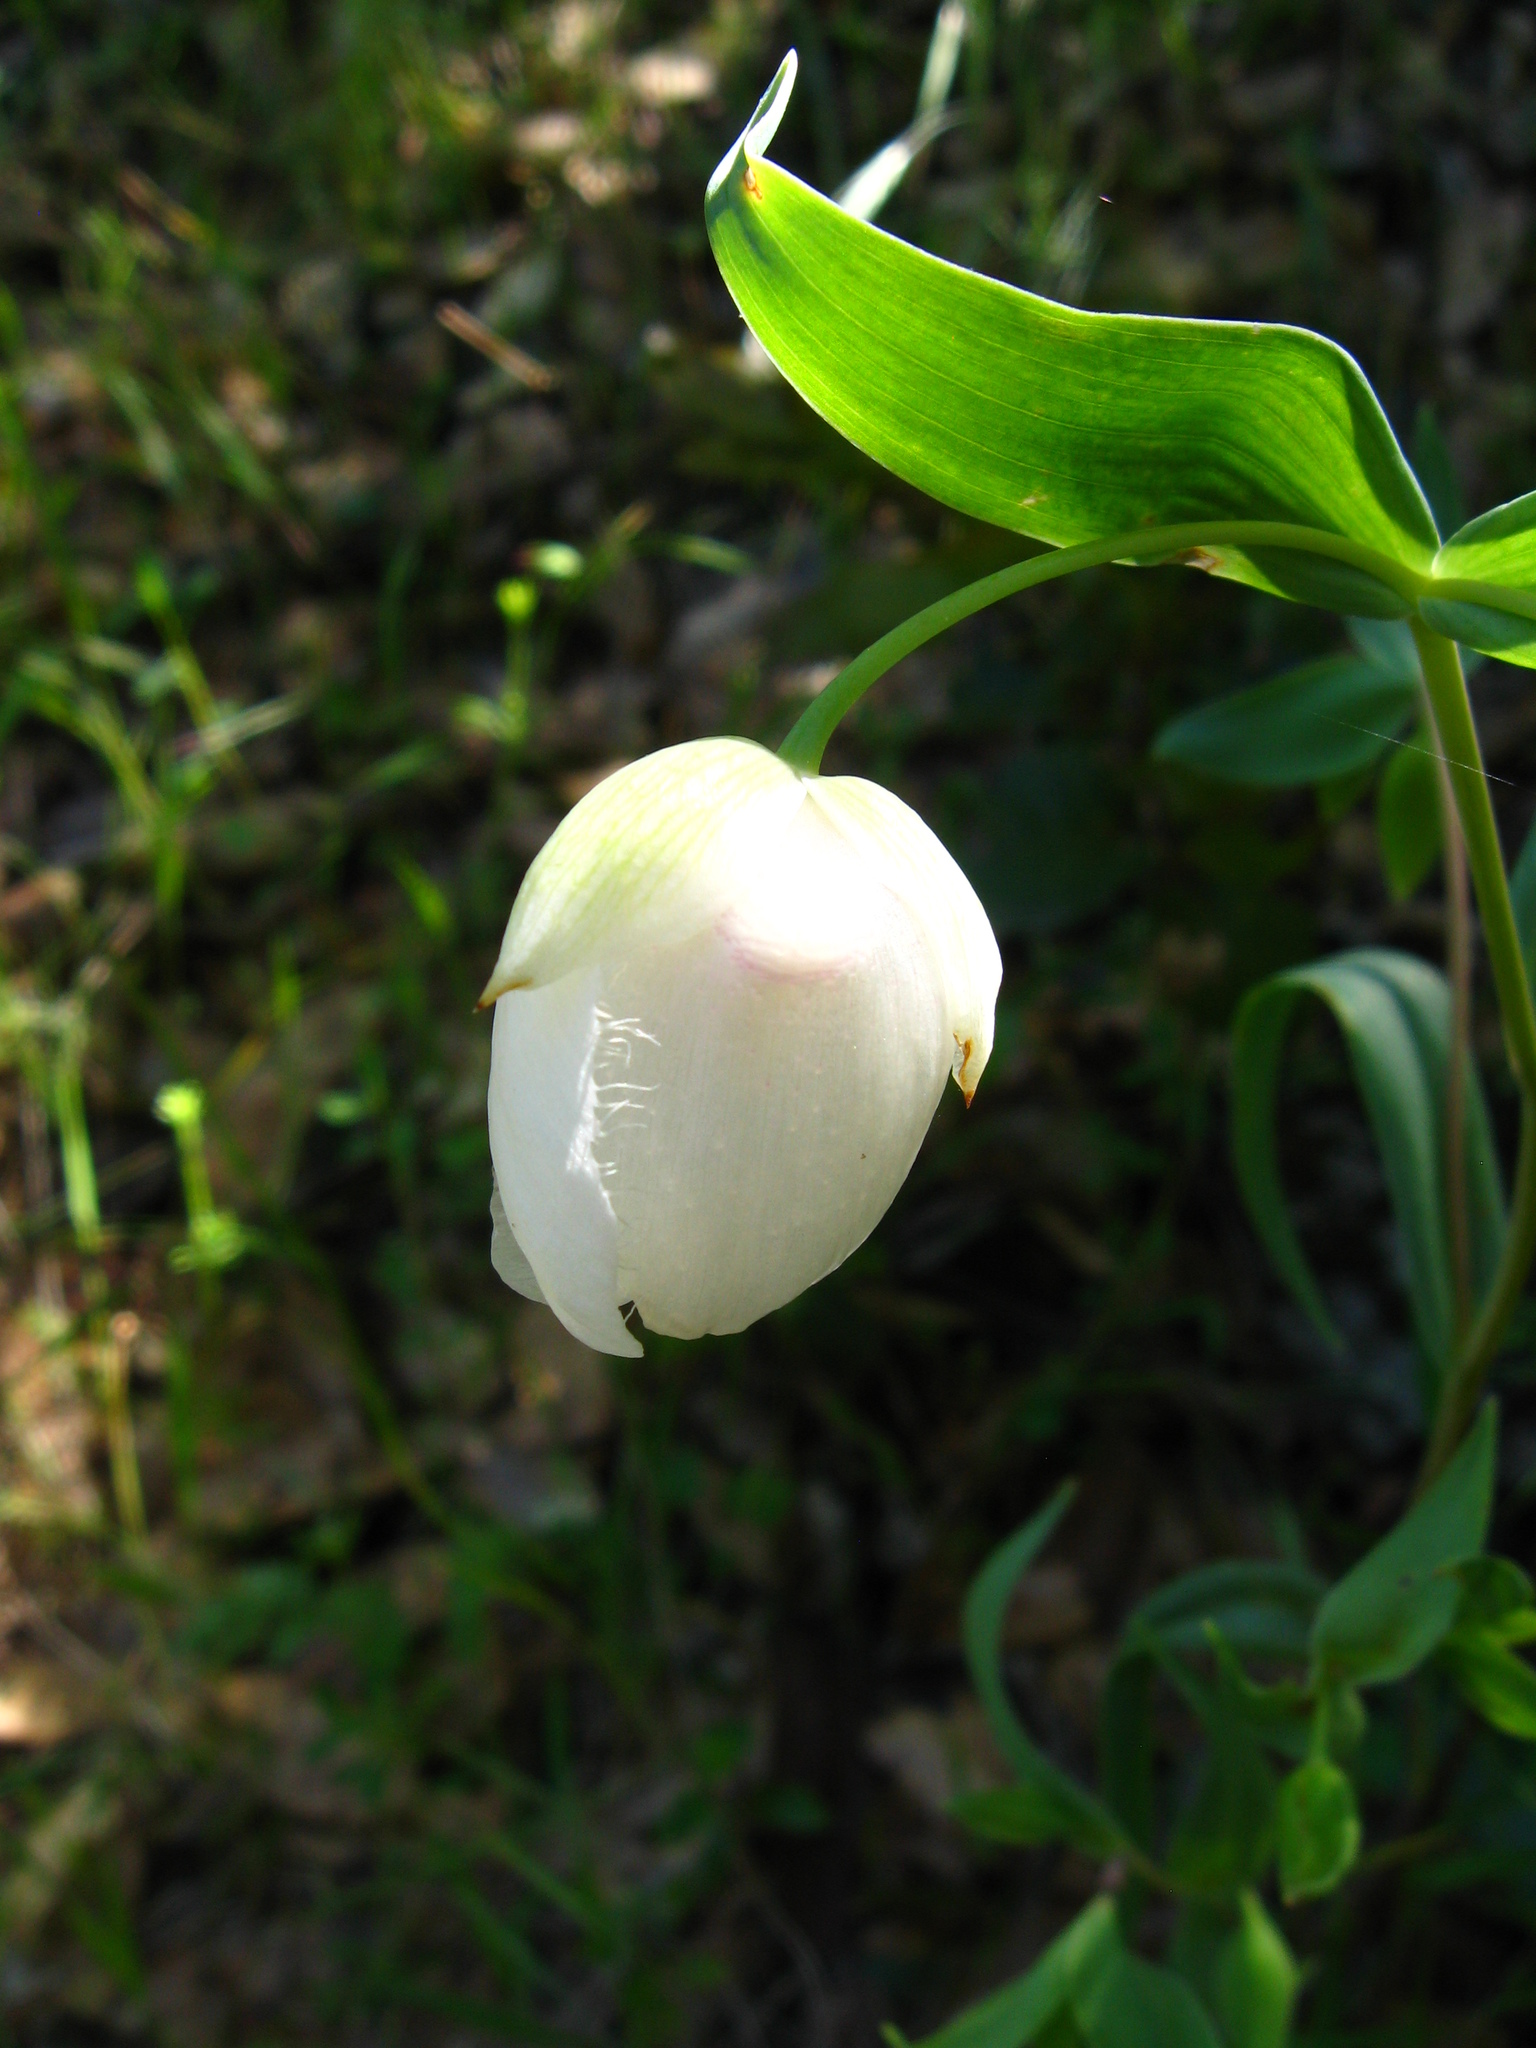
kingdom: Plantae
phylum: Tracheophyta
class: Liliopsida
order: Liliales
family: Liliaceae
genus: Calochortus
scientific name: Calochortus albus
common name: Fairy-lantern
